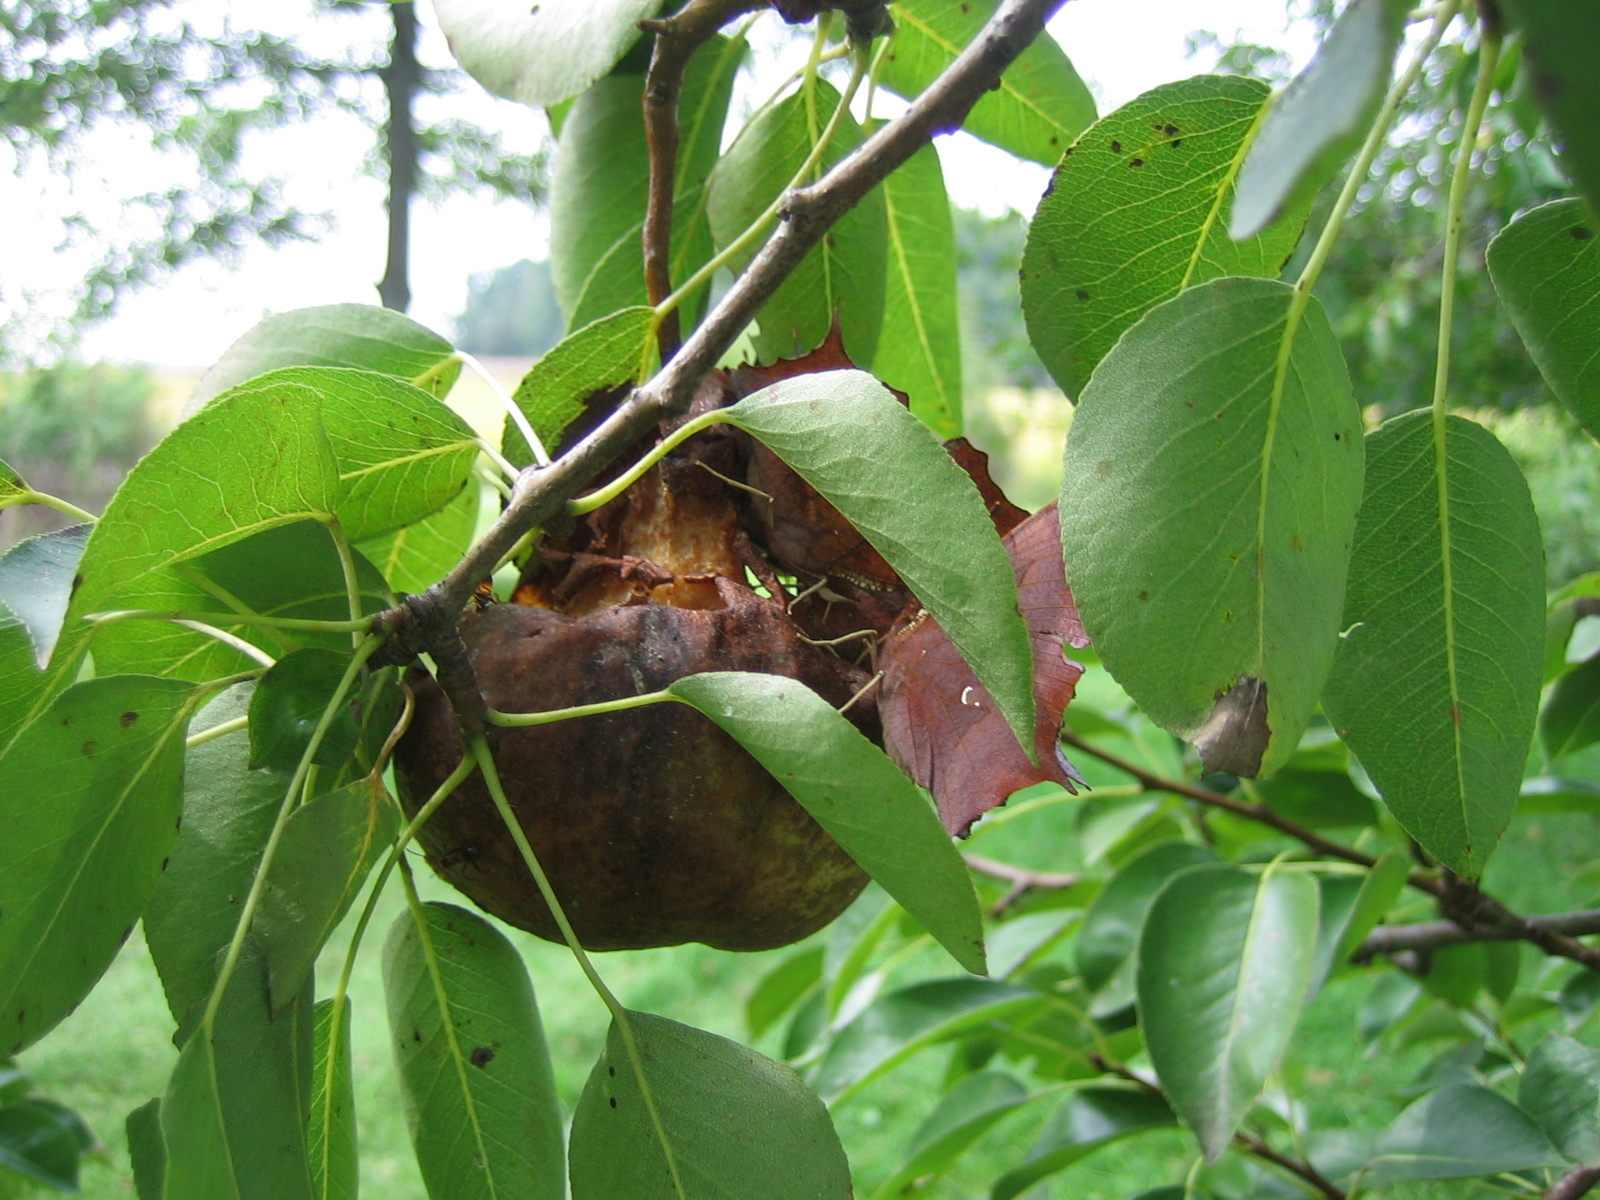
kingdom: Animalia
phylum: Arthropoda
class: Insecta
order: Lepidoptera
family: Nymphalidae
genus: Polygonia
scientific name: Polygonia interrogationis
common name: Question mark
